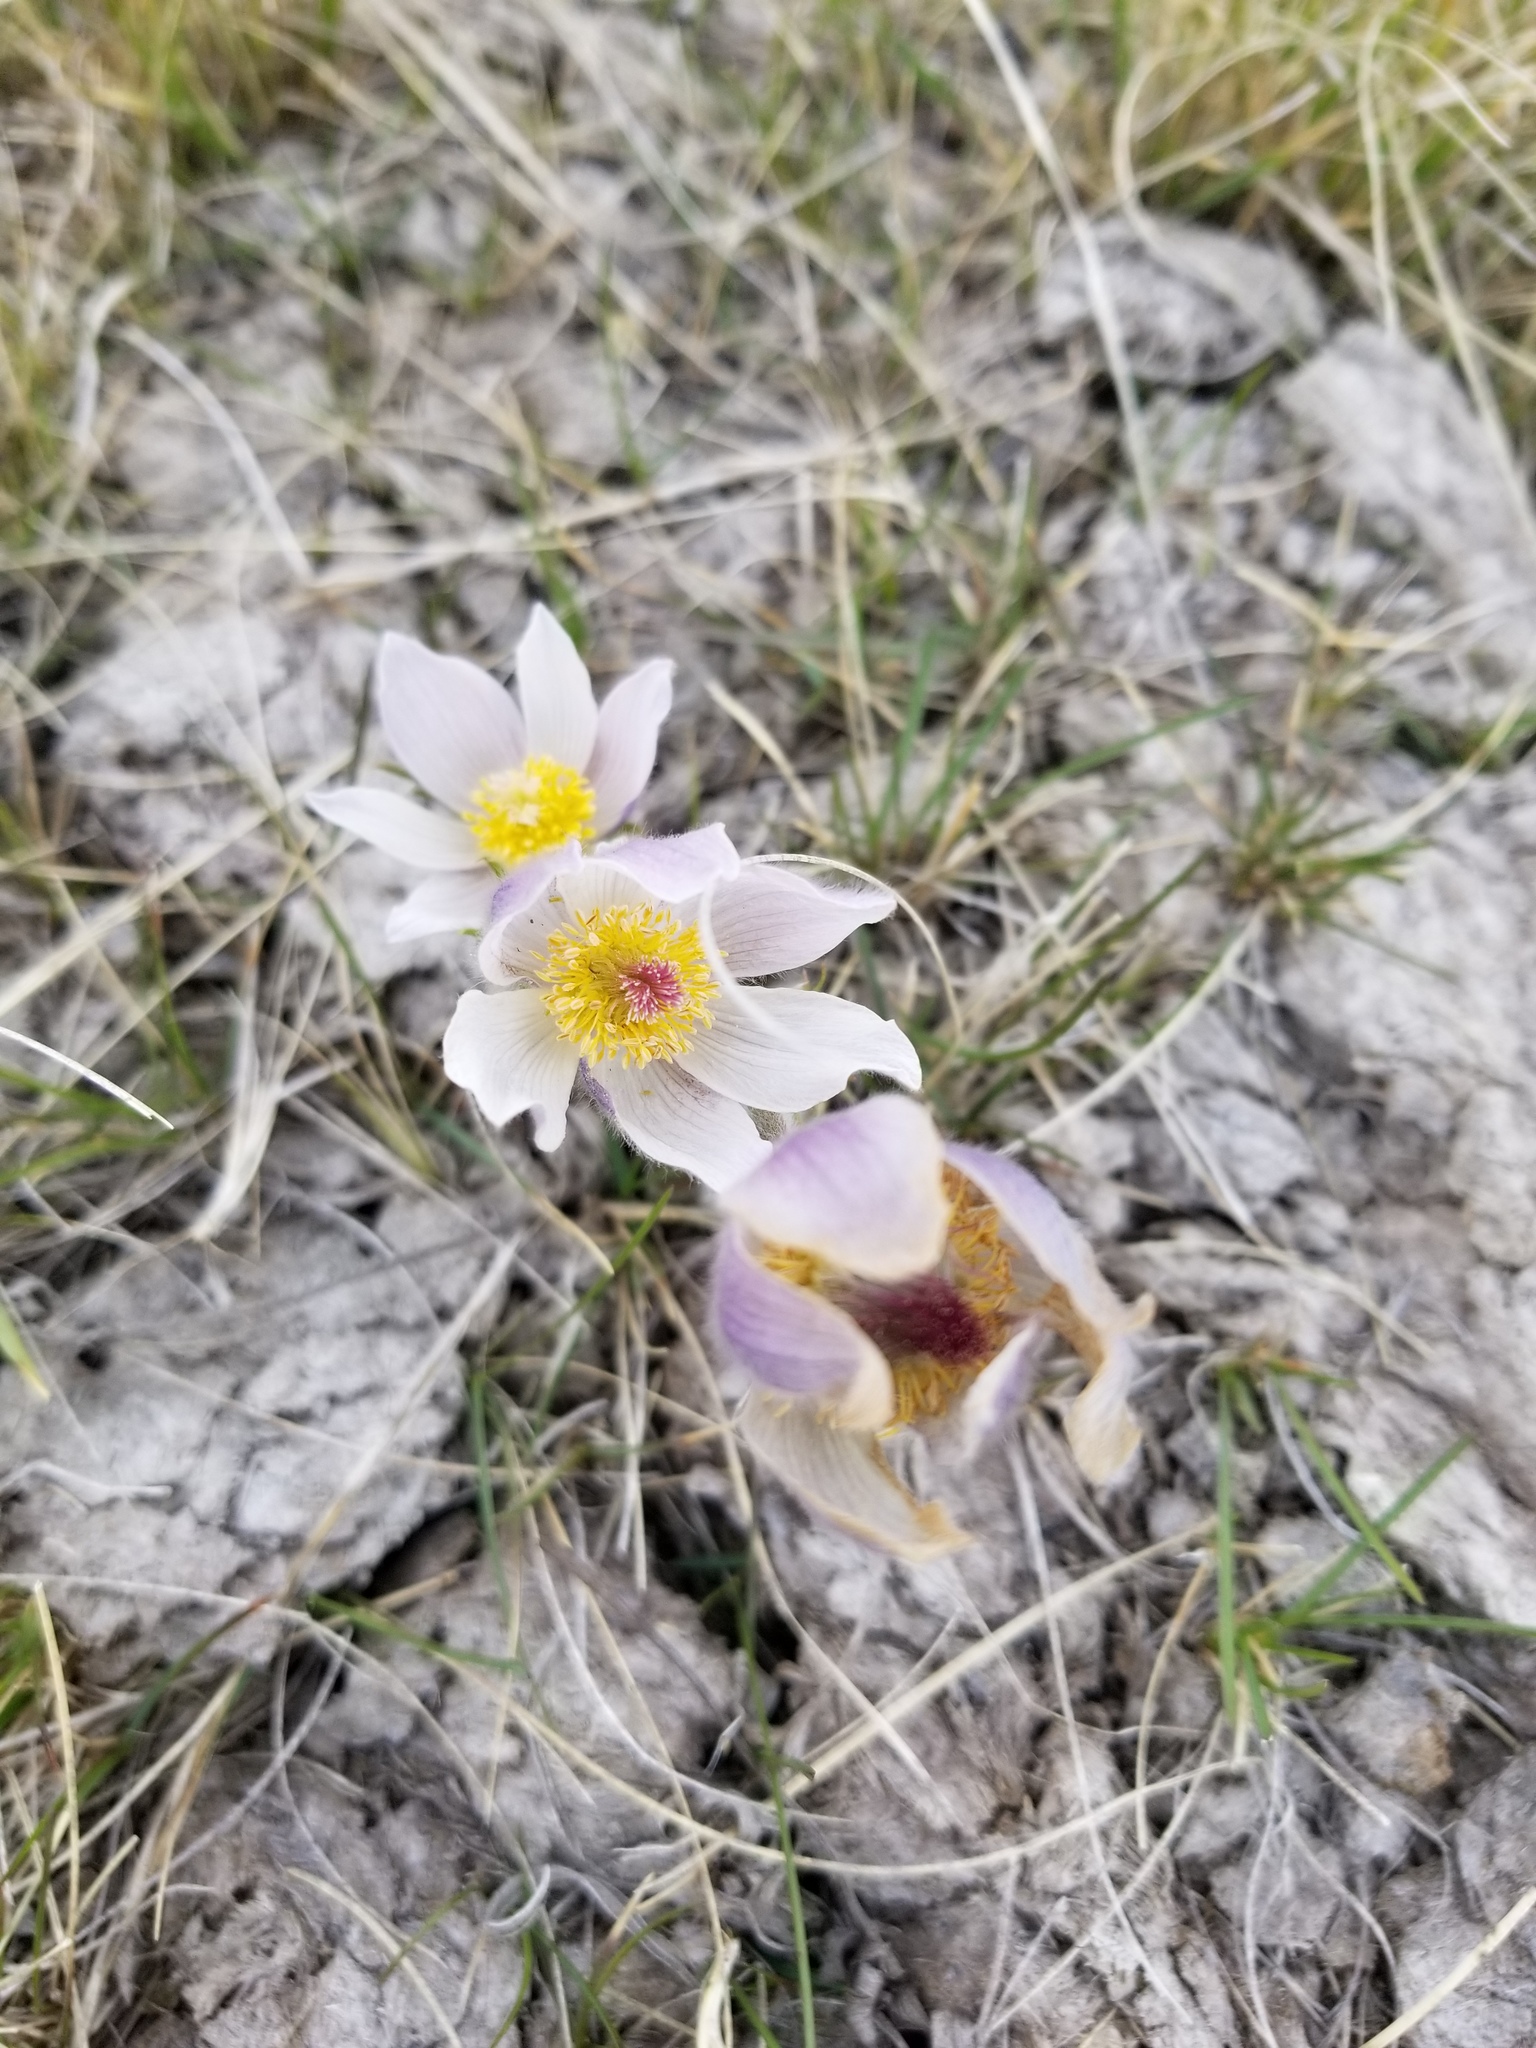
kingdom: Plantae
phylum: Tracheophyta
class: Magnoliopsida
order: Ranunculales
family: Ranunculaceae
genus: Pulsatilla
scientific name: Pulsatilla nuttalliana
